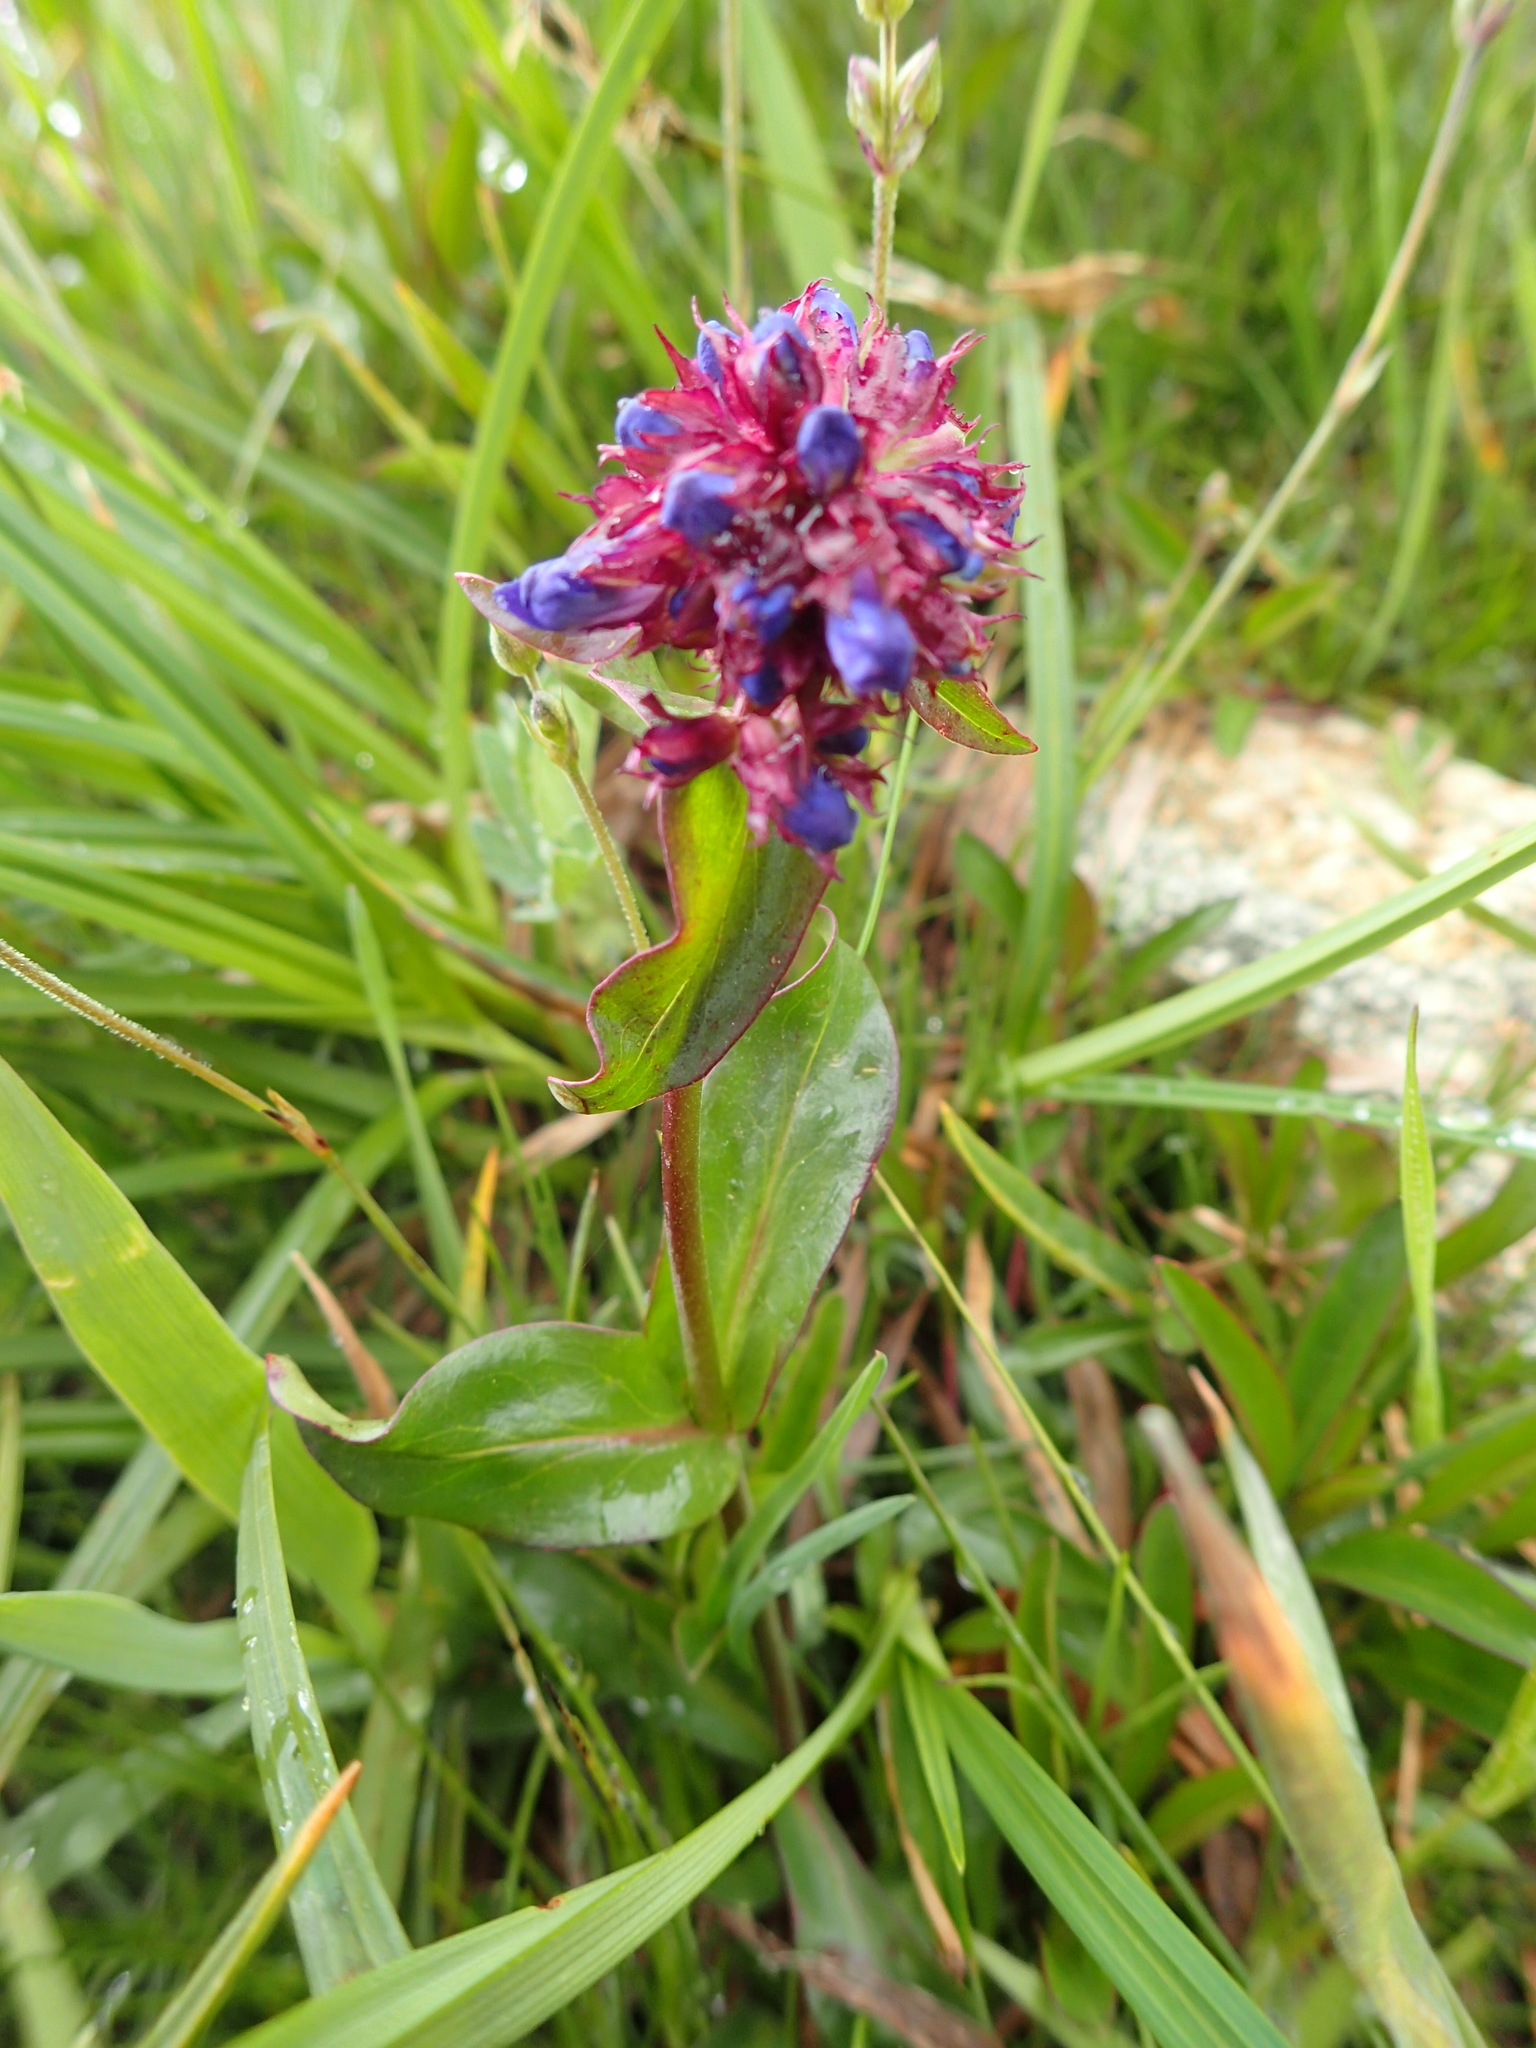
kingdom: Plantae
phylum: Tracheophyta
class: Magnoliopsida
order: Lamiales
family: Plantaginaceae
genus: Penstemon
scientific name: Penstemon procerus
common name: Small-flower penstemon
